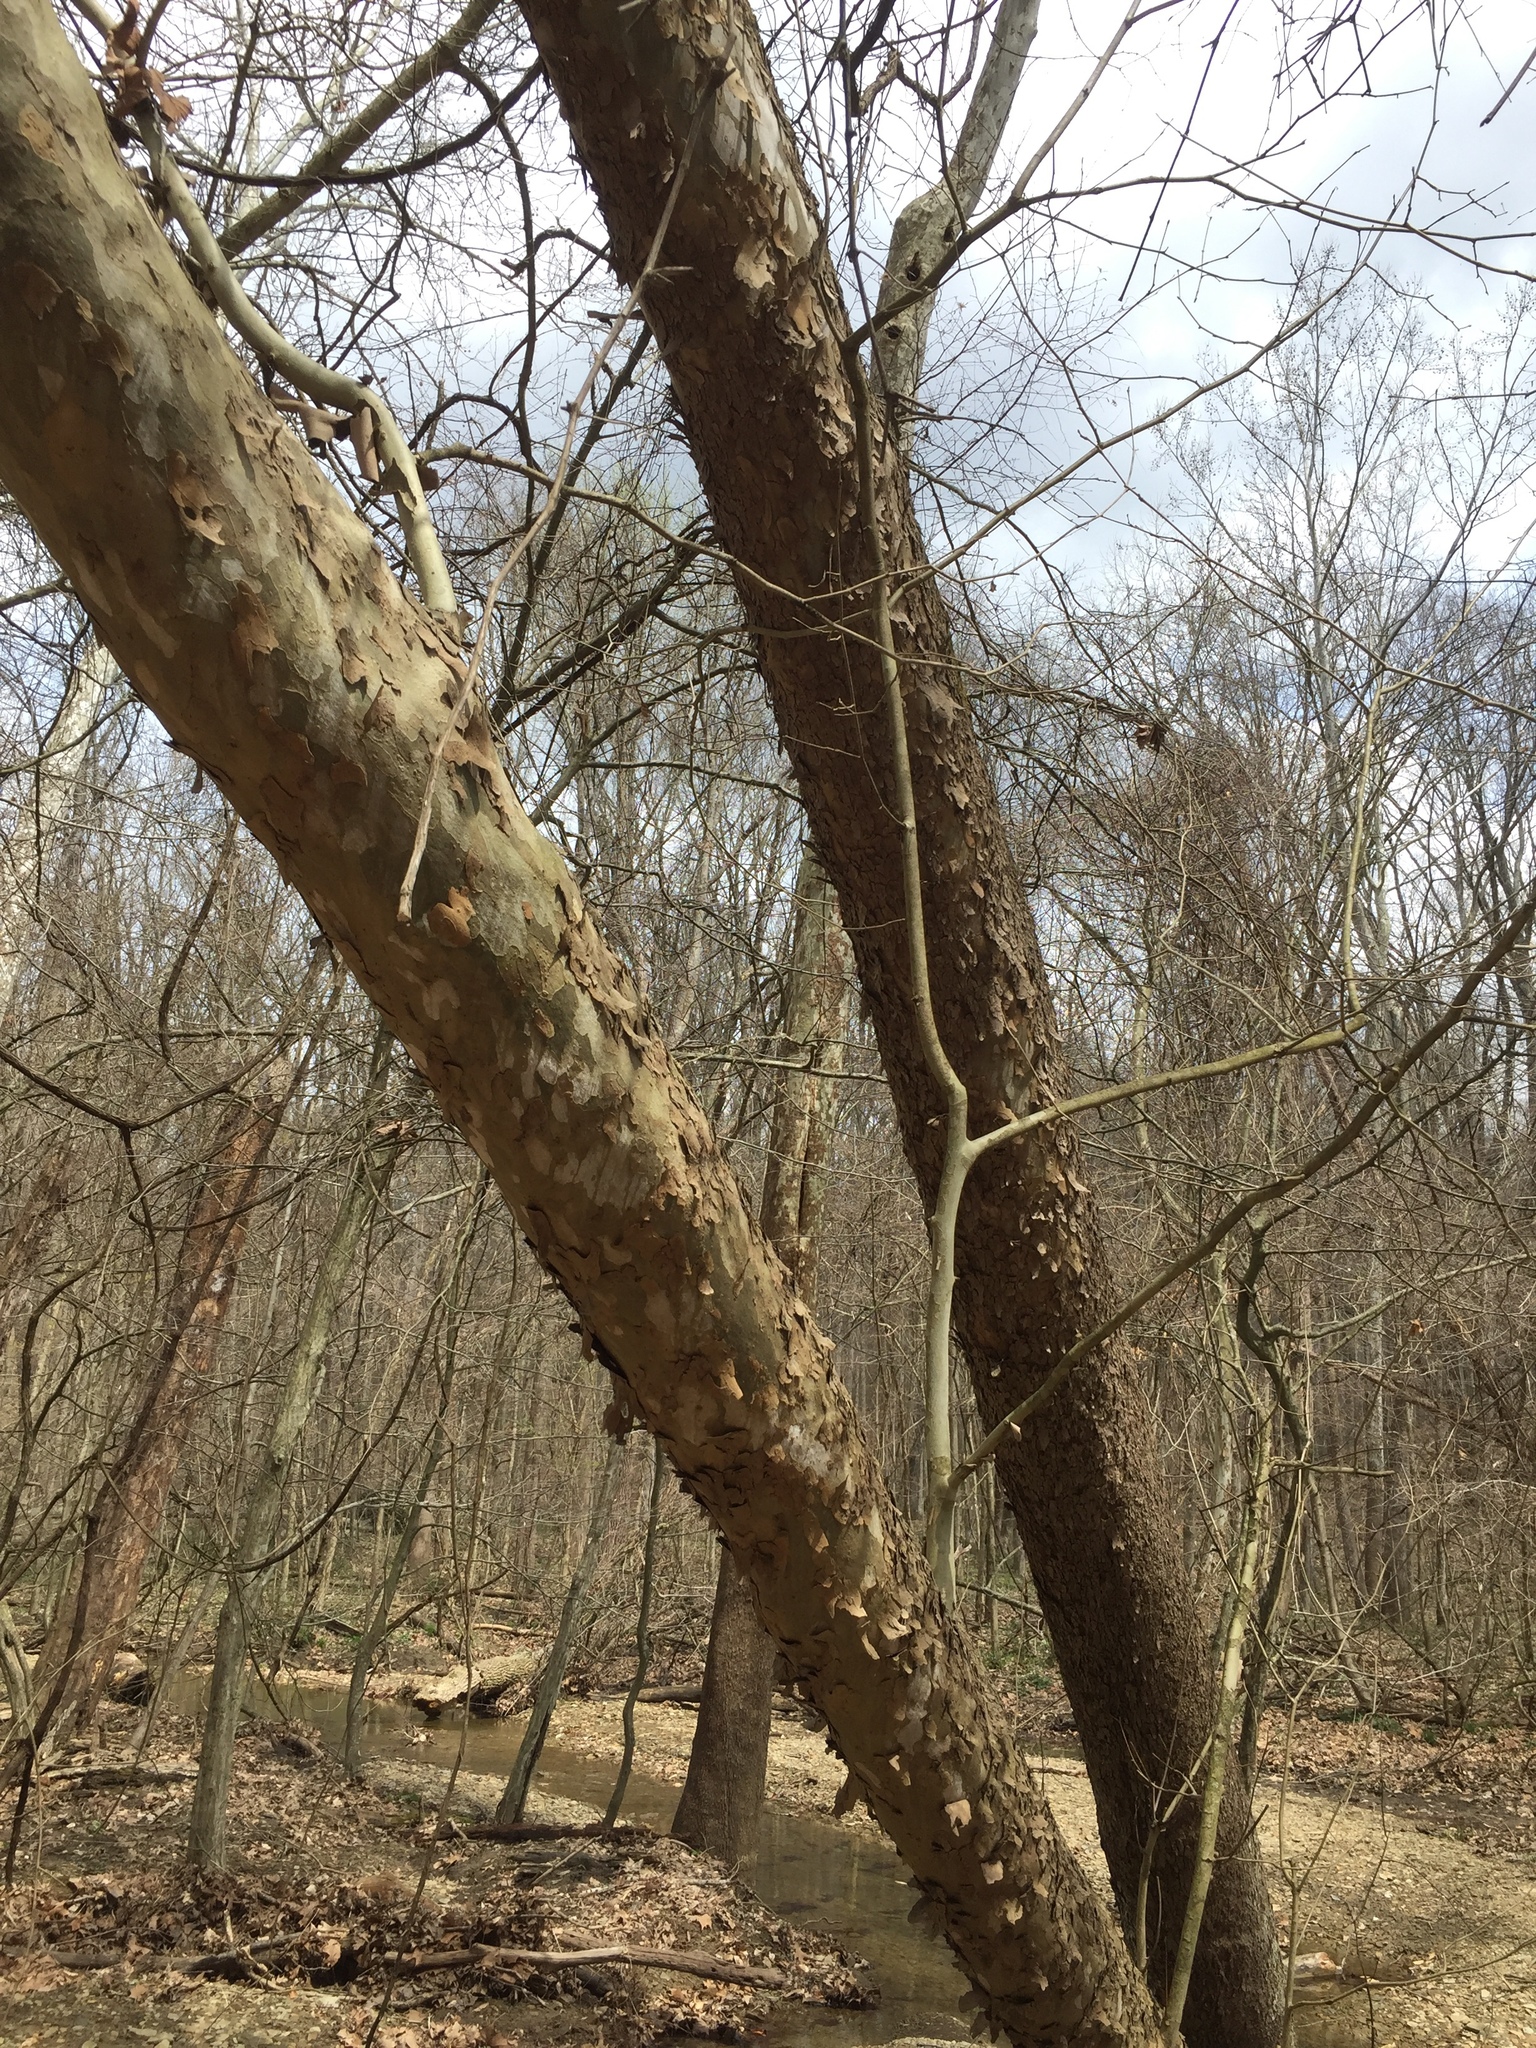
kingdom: Plantae
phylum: Tracheophyta
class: Magnoliopsida
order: Proteales
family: Platanaceae
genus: Platanus
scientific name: Platanus occidentalis
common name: American sycamore
